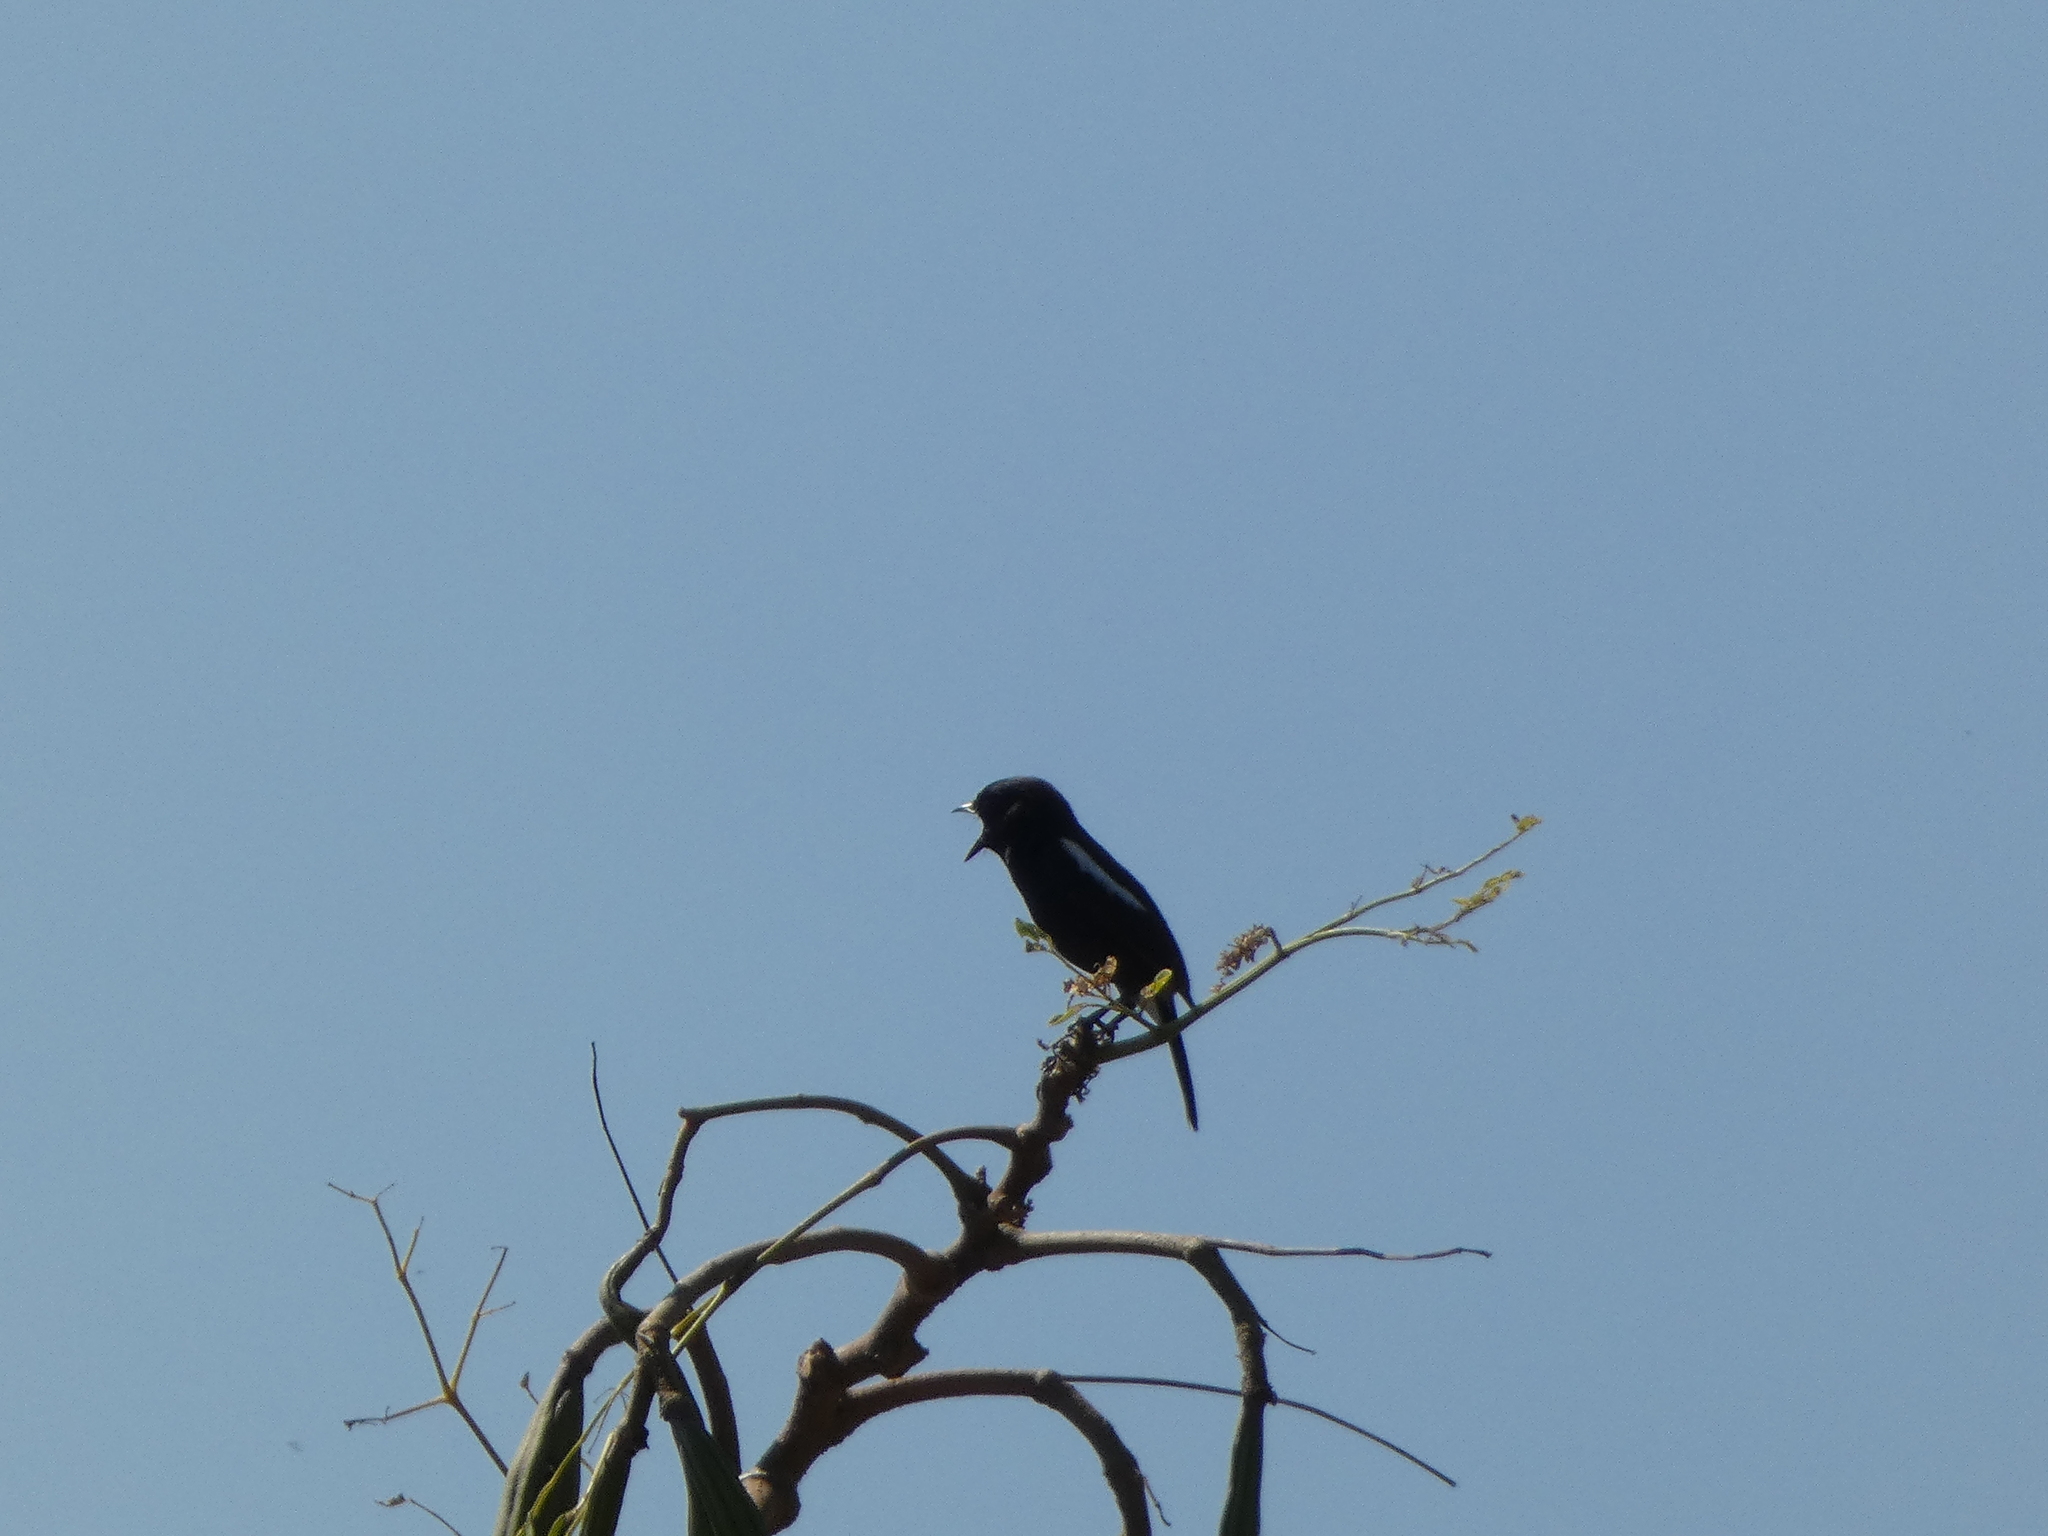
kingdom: Animalia
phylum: Chordata
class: Aves
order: Passeriformes
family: Muscicapidae
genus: Saxicola
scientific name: Saxicola caprata
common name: Pied bush chat
